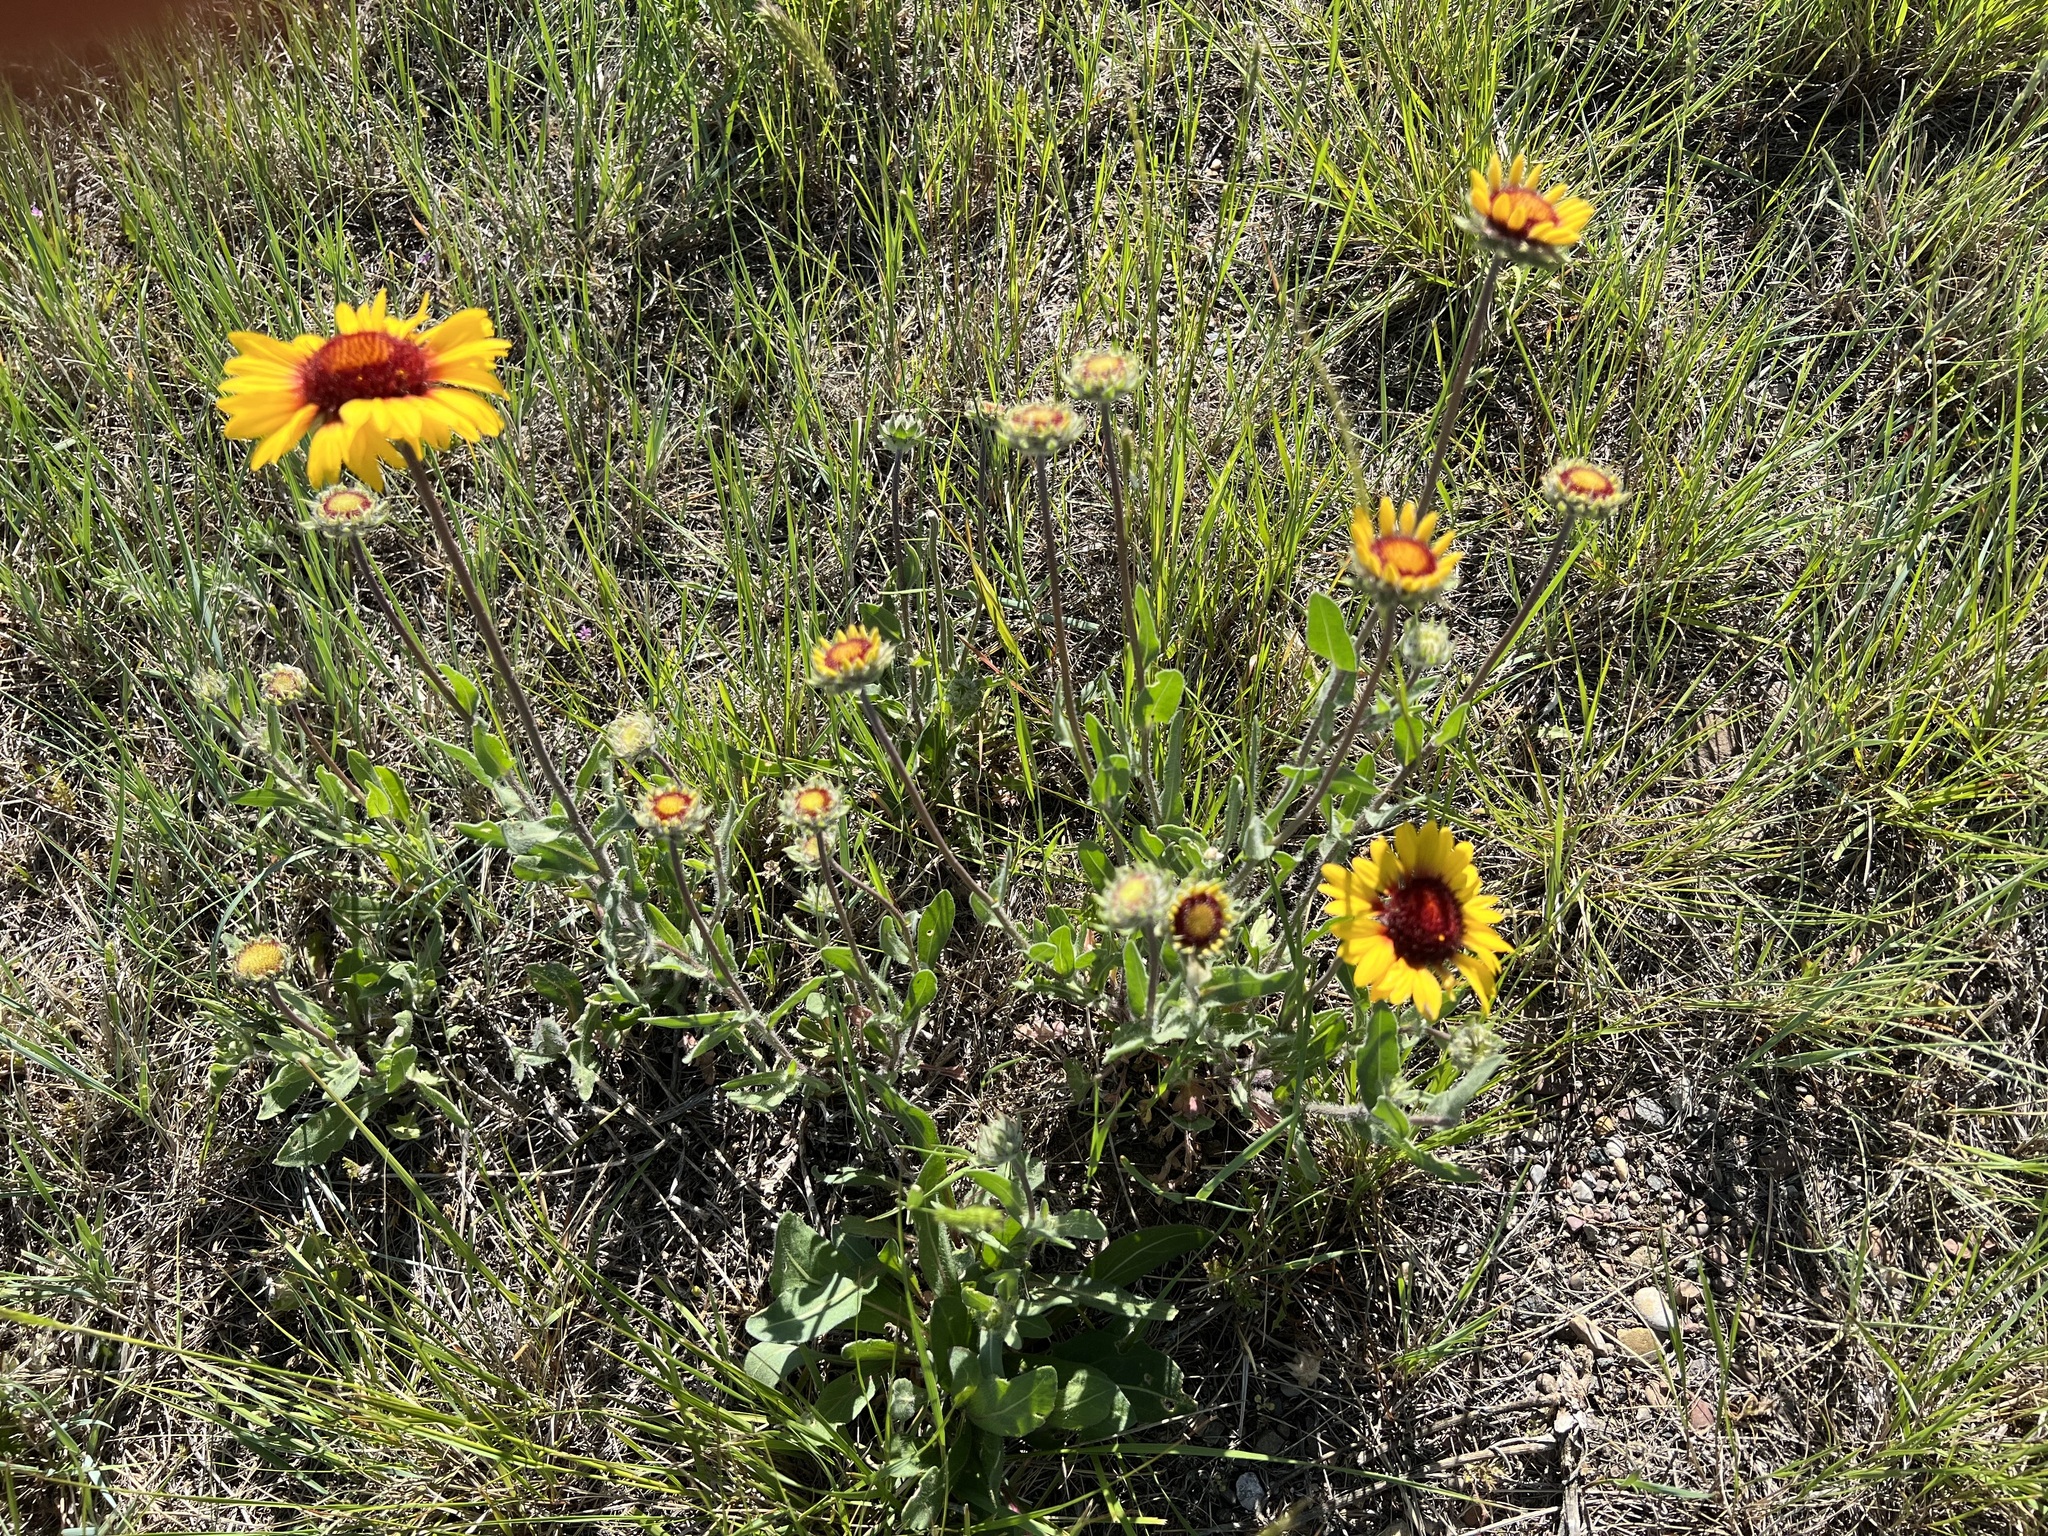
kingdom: Plantae
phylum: Tracheophyta
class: Magnoliopsida
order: Asterales
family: Asteraceae
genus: Gaillardia
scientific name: Gaillardia aristata
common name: Blanket-flower
